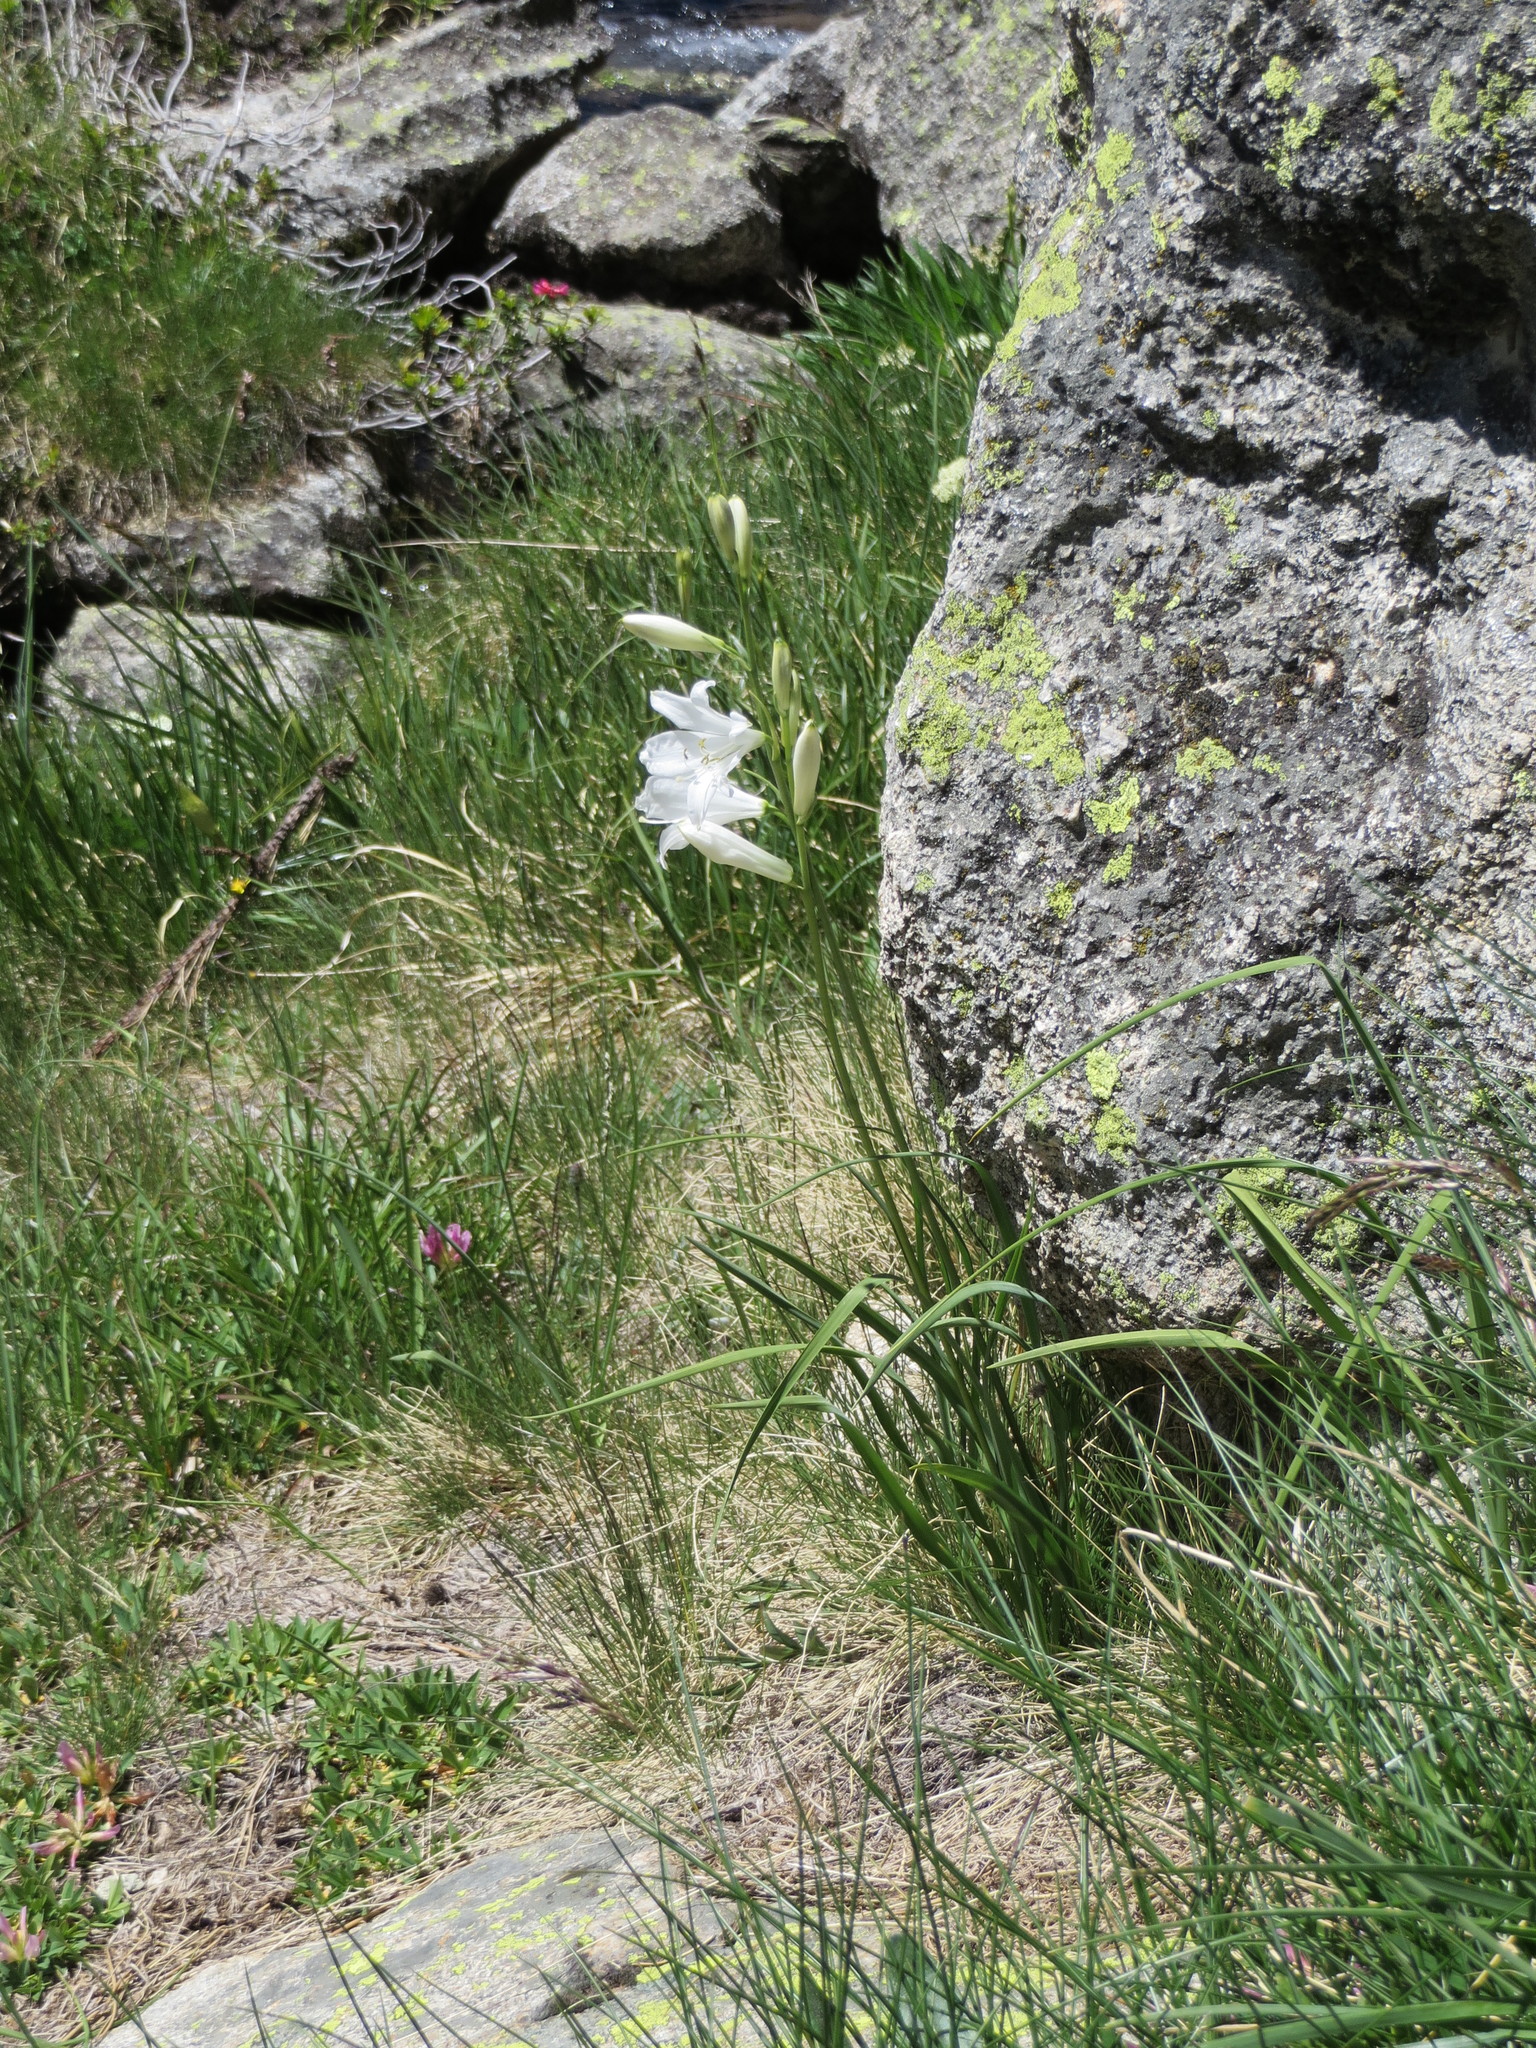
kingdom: Plantae
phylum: Tracheophyta
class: Liliopsida
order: Asparagales
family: Asparagaceae
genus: Paradisea
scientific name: Paradisea liliastrum
